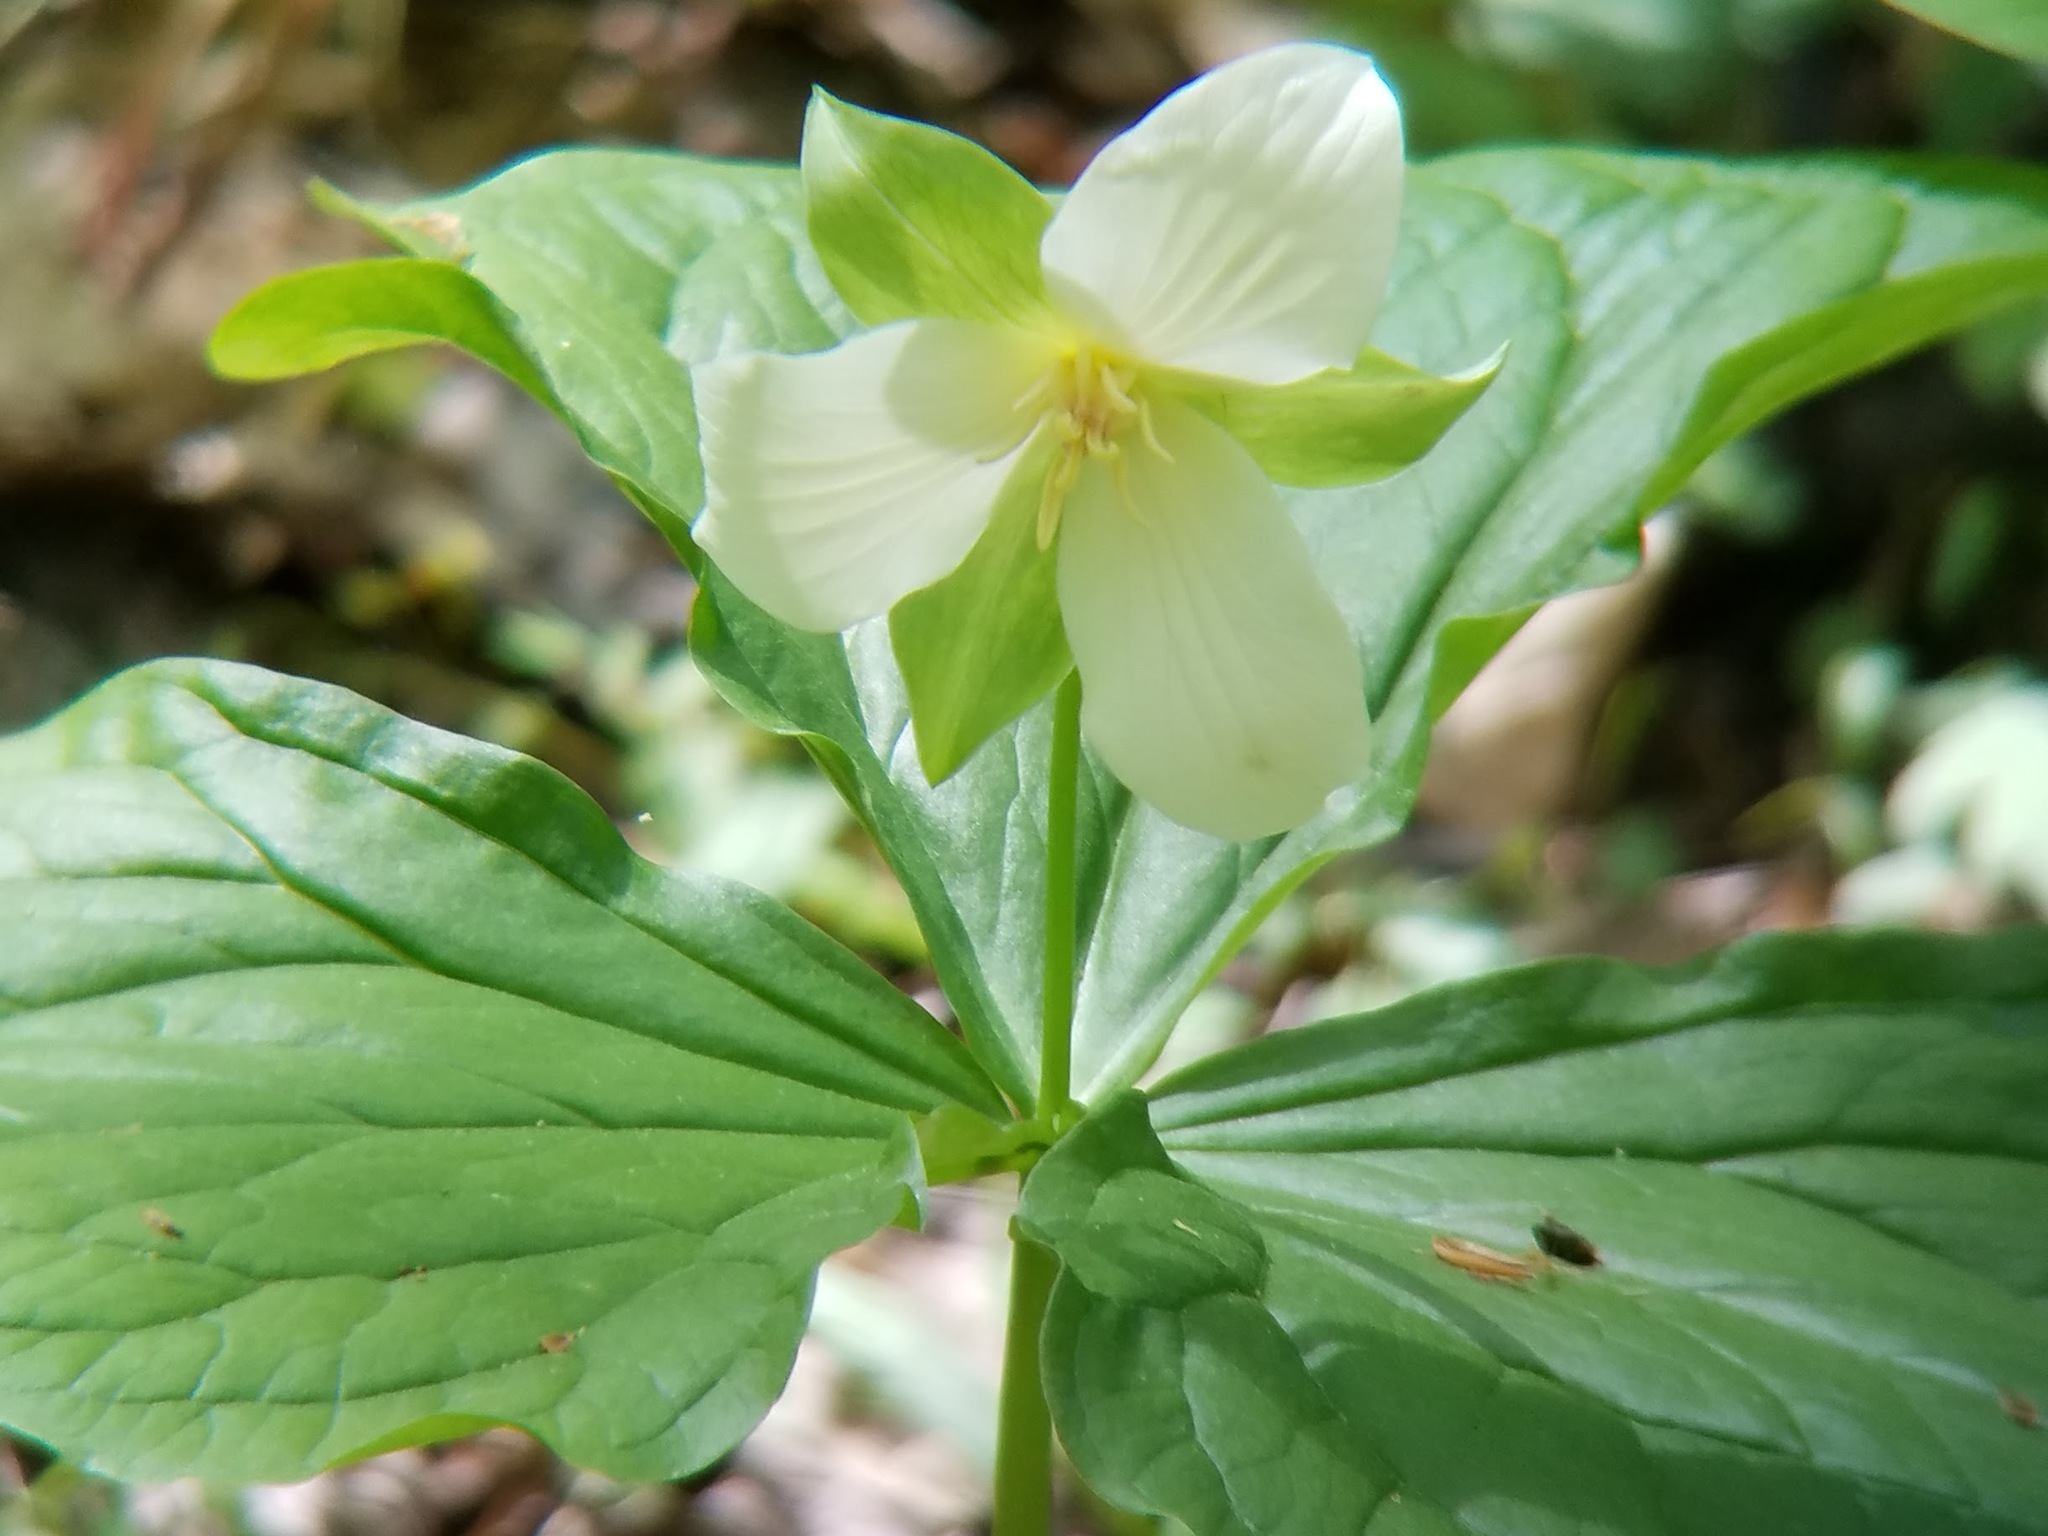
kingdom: Plantae
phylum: Tracheophyta
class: Liliopsida
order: Liliales
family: Melanthiaceae
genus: Trillium
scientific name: Trillium flexipes
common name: Drooping trillium
